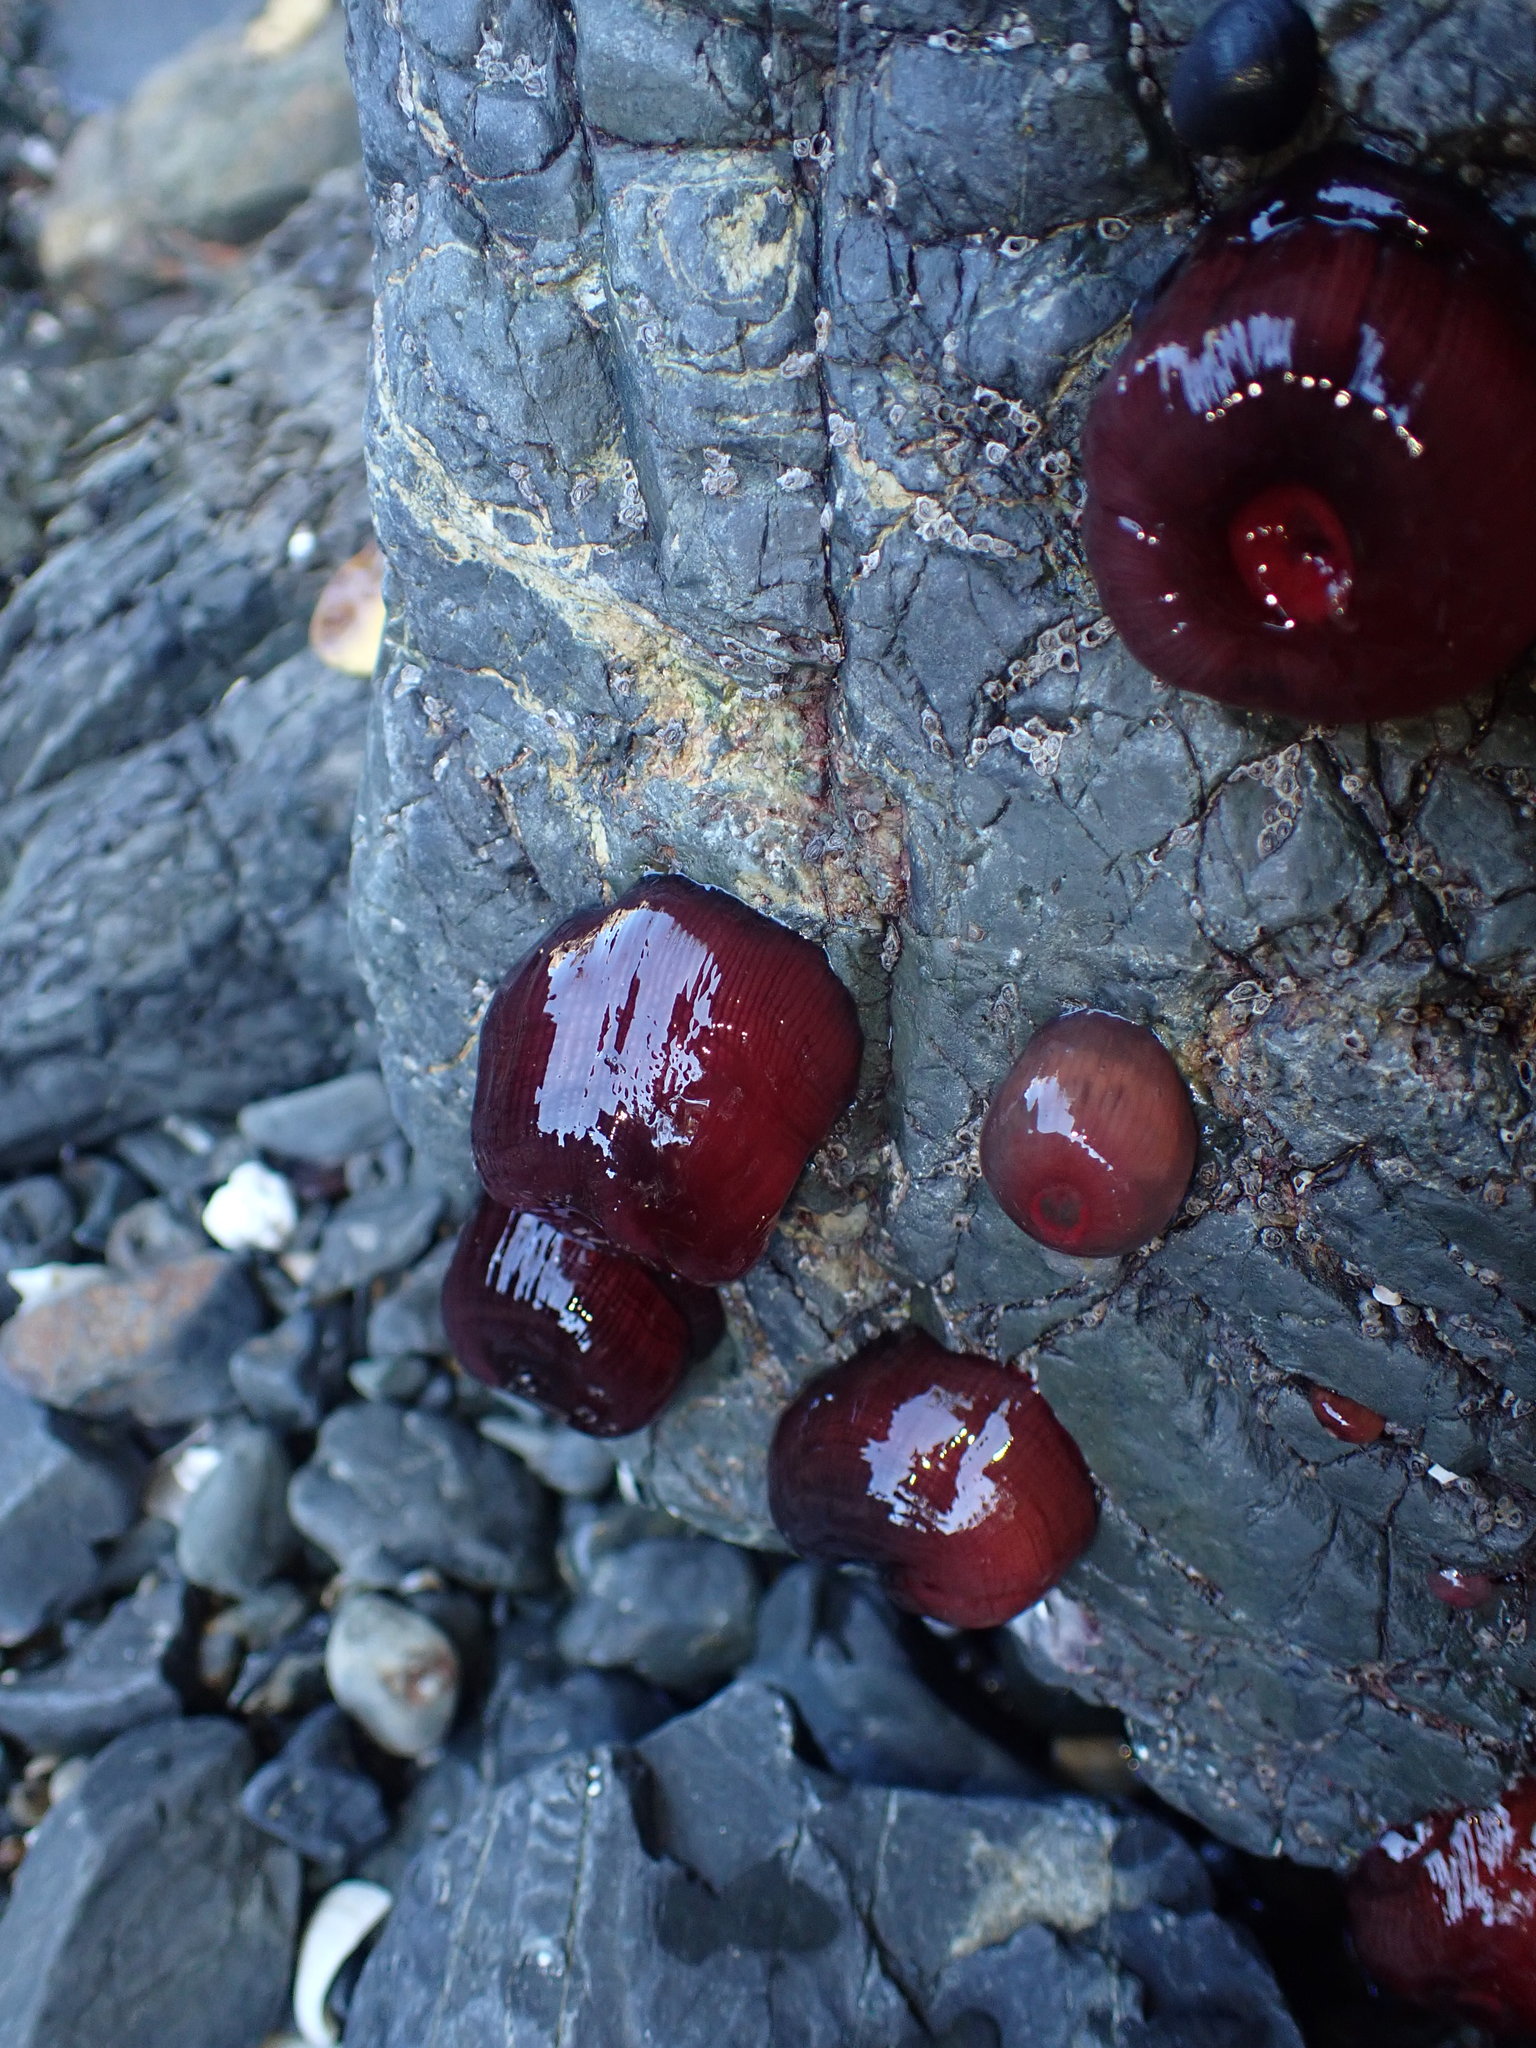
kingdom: Animalia
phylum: Cnidaria
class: Anthozoa
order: Actiniaria
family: Actiniidae
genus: Actinia
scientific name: Actinia tenebrosa
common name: Waratah anemone
